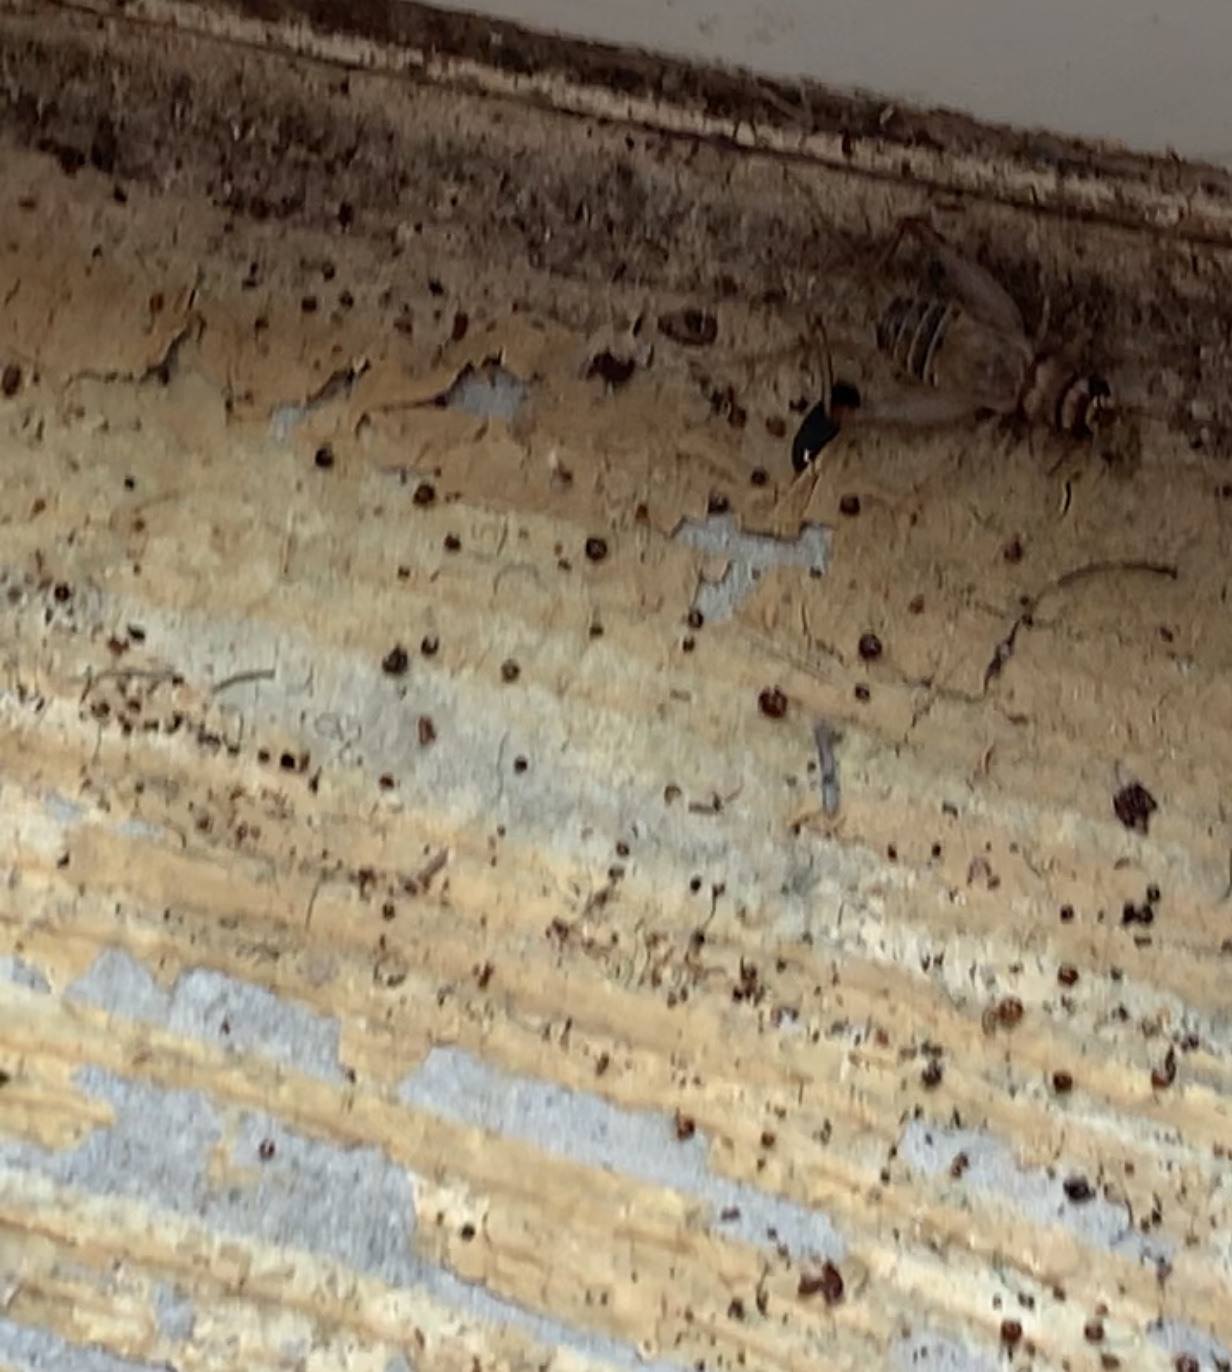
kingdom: Animalia
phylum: Arthropoda
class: Insecta
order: Orthoptera
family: Gryllidae
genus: Gryllodes
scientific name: Gryllodes sigillatus
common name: Tropical house cricket
